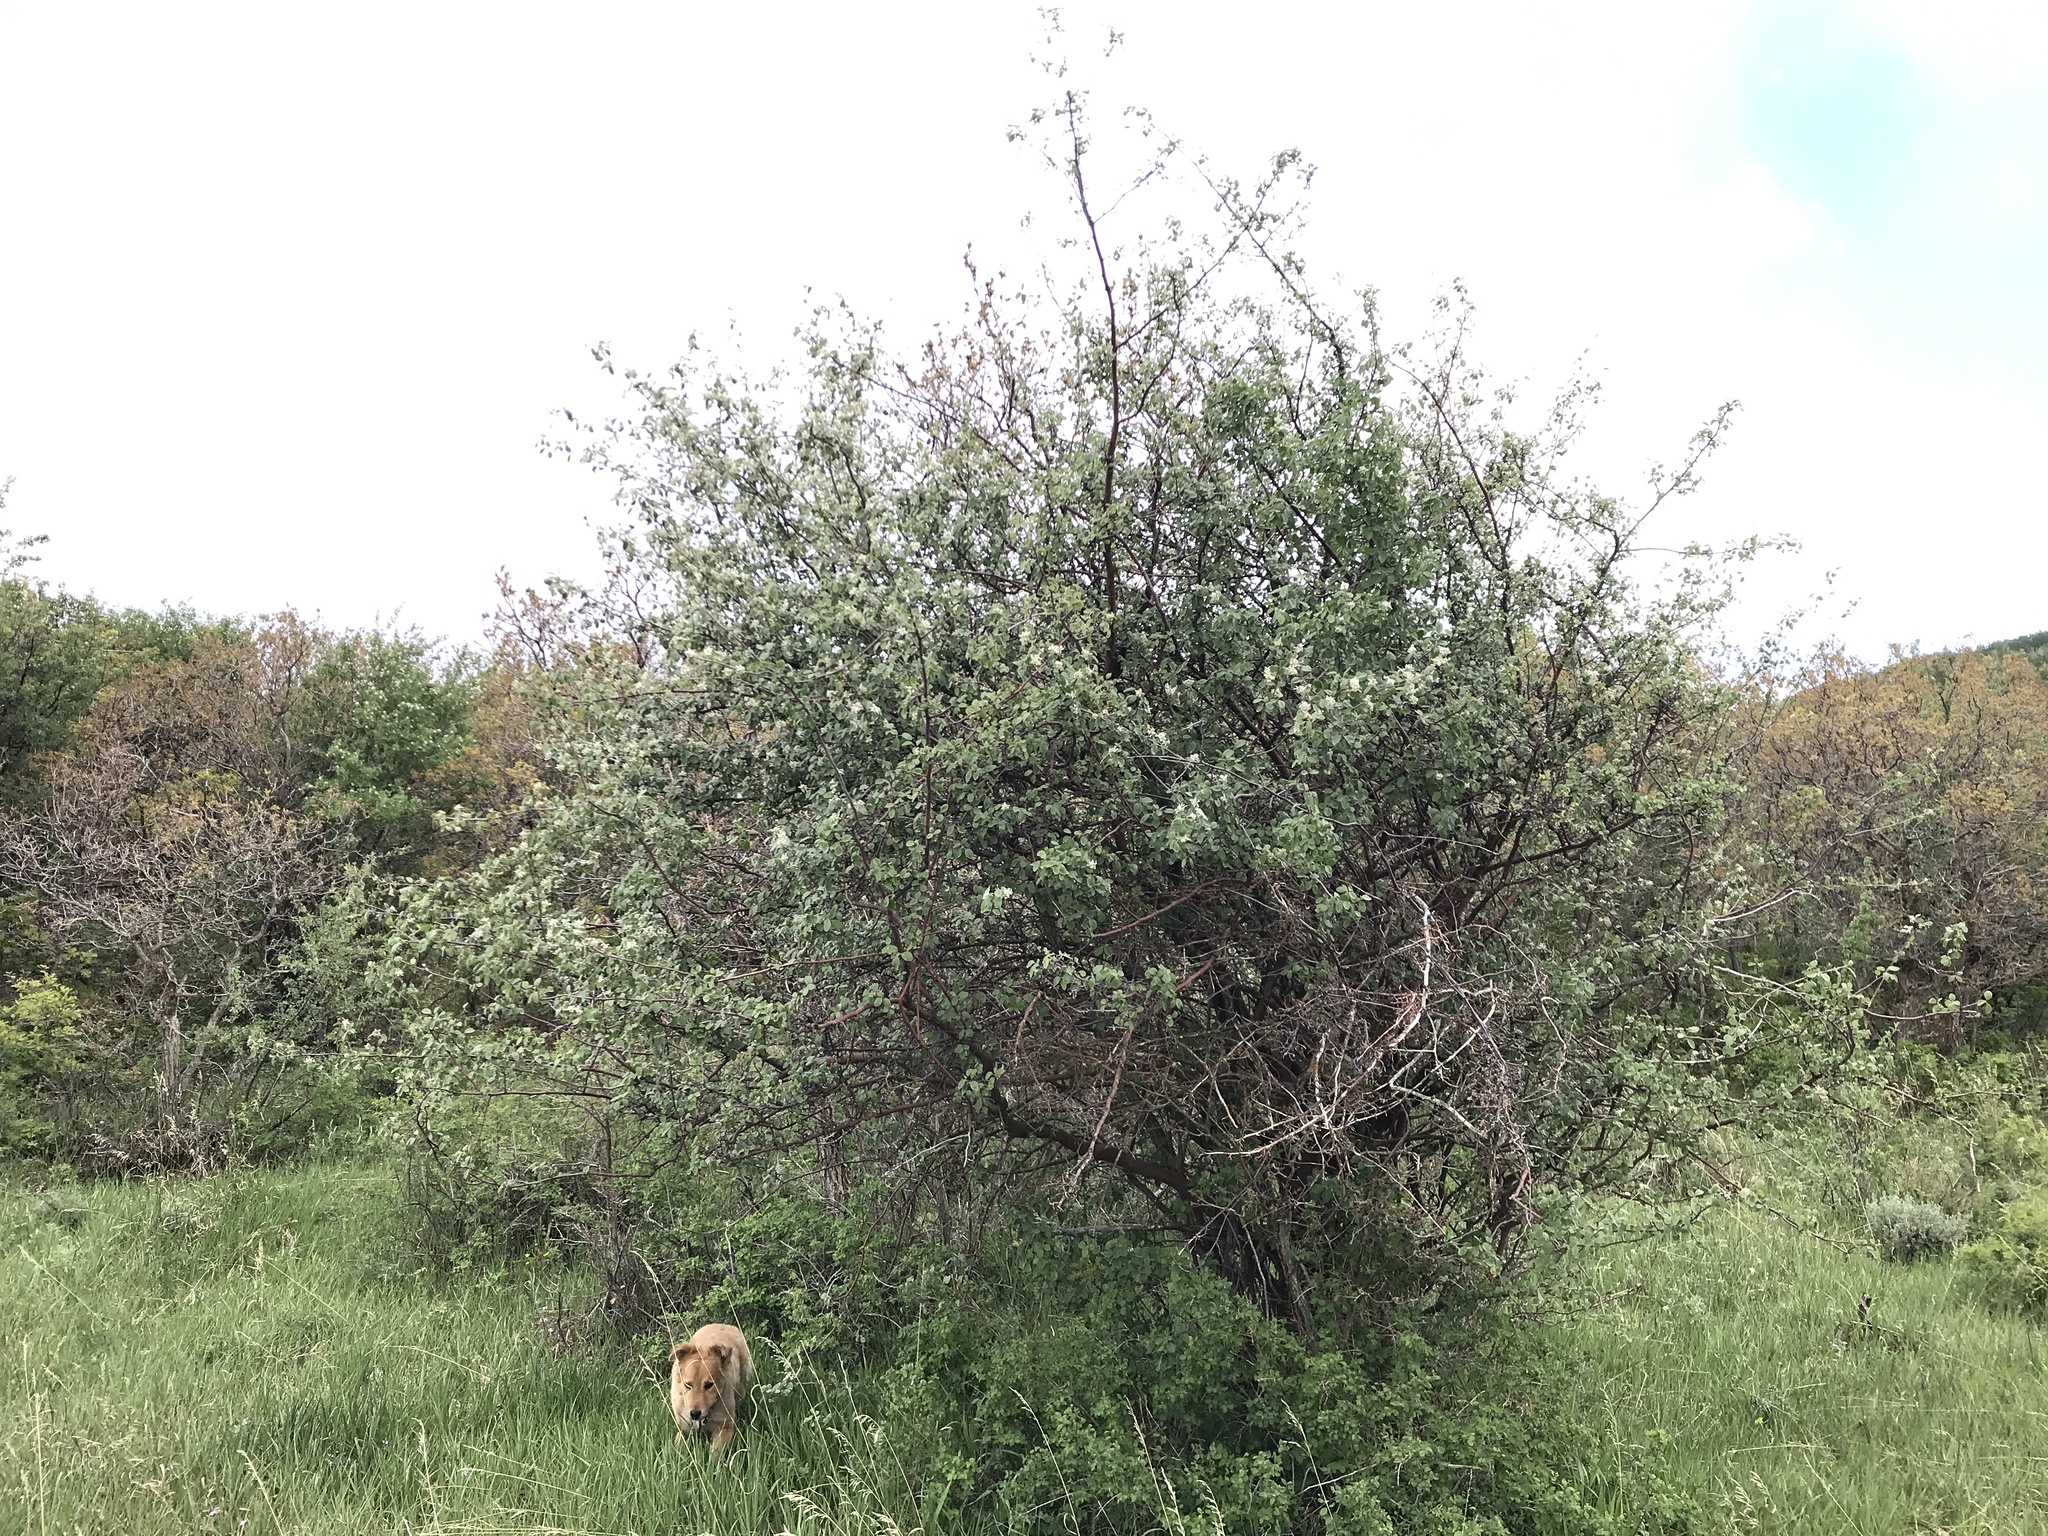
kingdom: Plantae
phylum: Tracheophyta
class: Magnoliopsida
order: Rosales
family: Rosaceae
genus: Amelanchier
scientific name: Amelanchier utahensis
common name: Utah serviceberry
